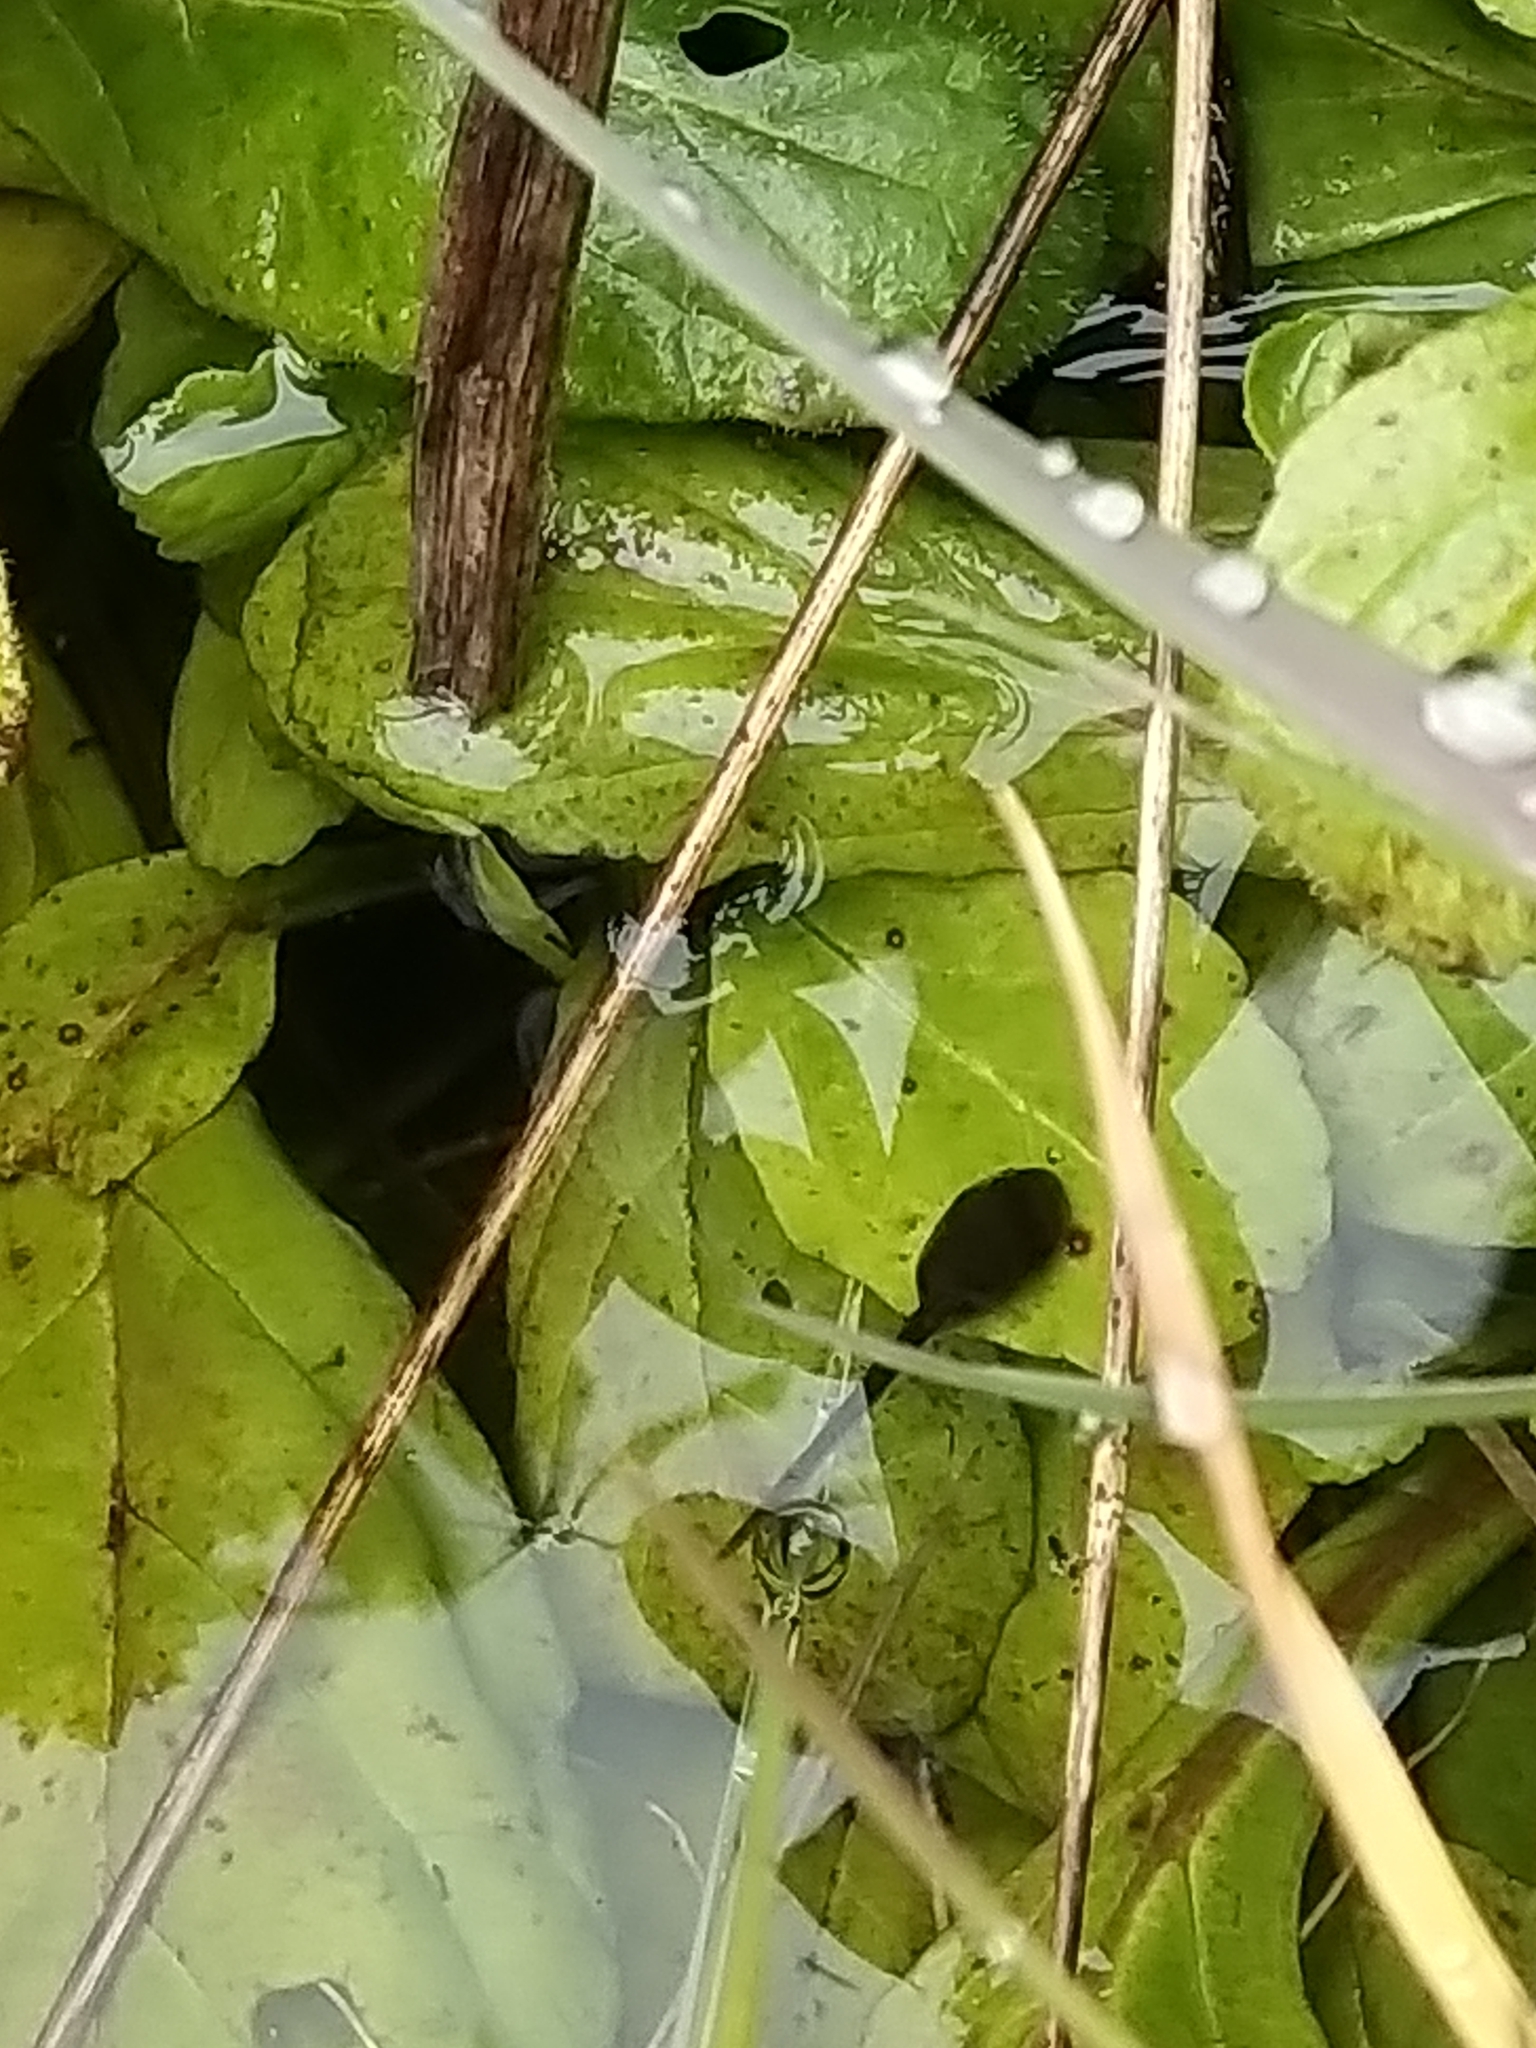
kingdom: Animalia
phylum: Chordata
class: Amphibia
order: Anura
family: Ranidae
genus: Rana
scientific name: Rana temporaria
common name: Common frog
